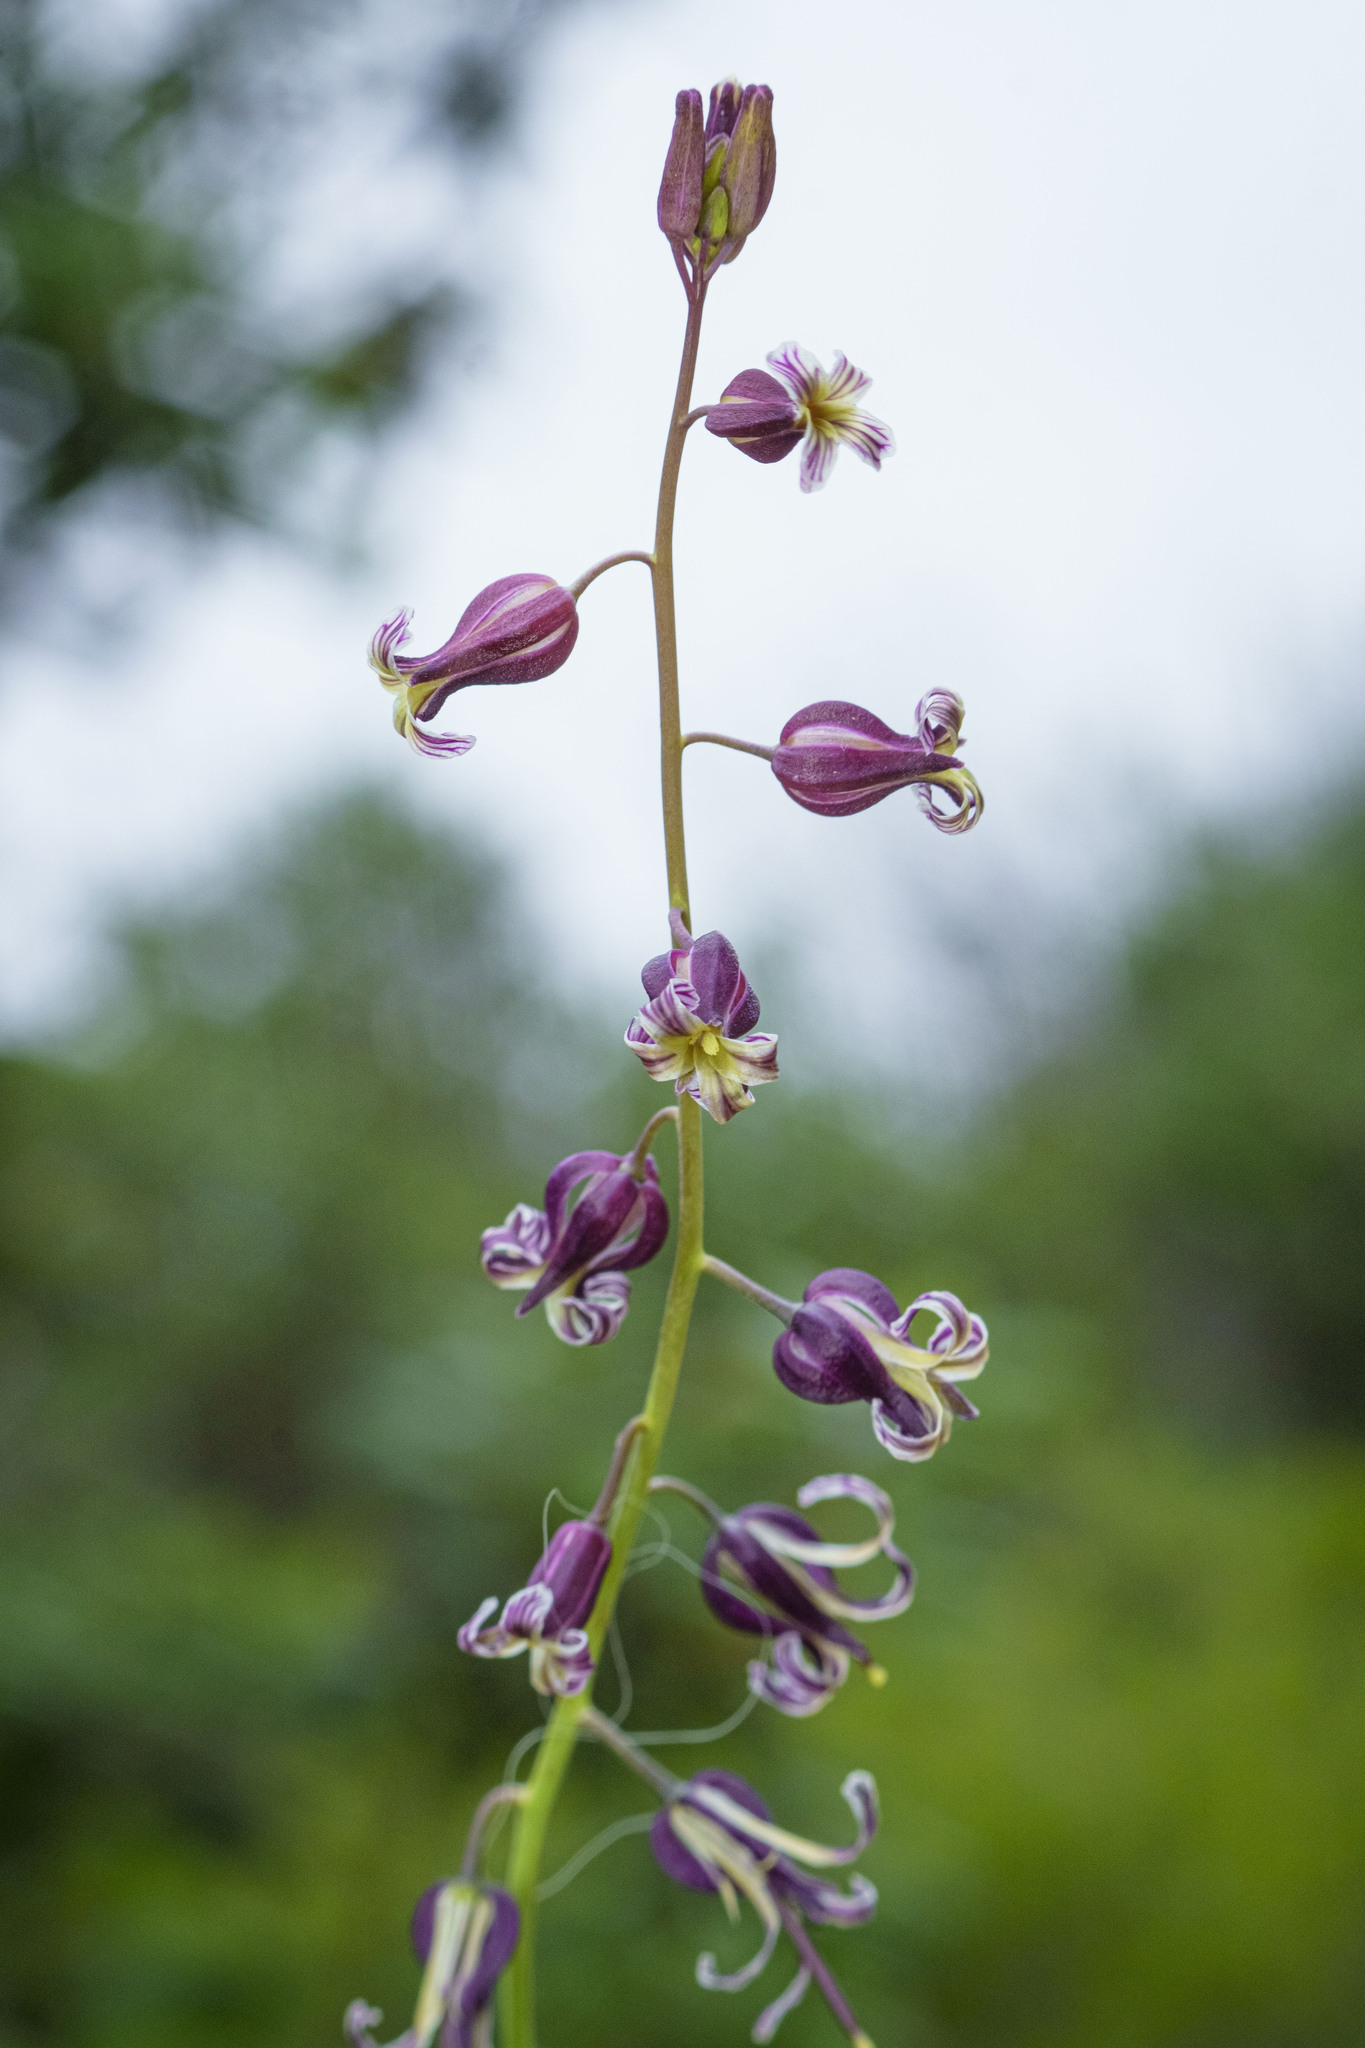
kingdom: Plantae
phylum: Tracheophyta
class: Magnoliopsida
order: Brassicales
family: Brassicaceae
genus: Streptanthus
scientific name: Streptanthus heterophyllus
